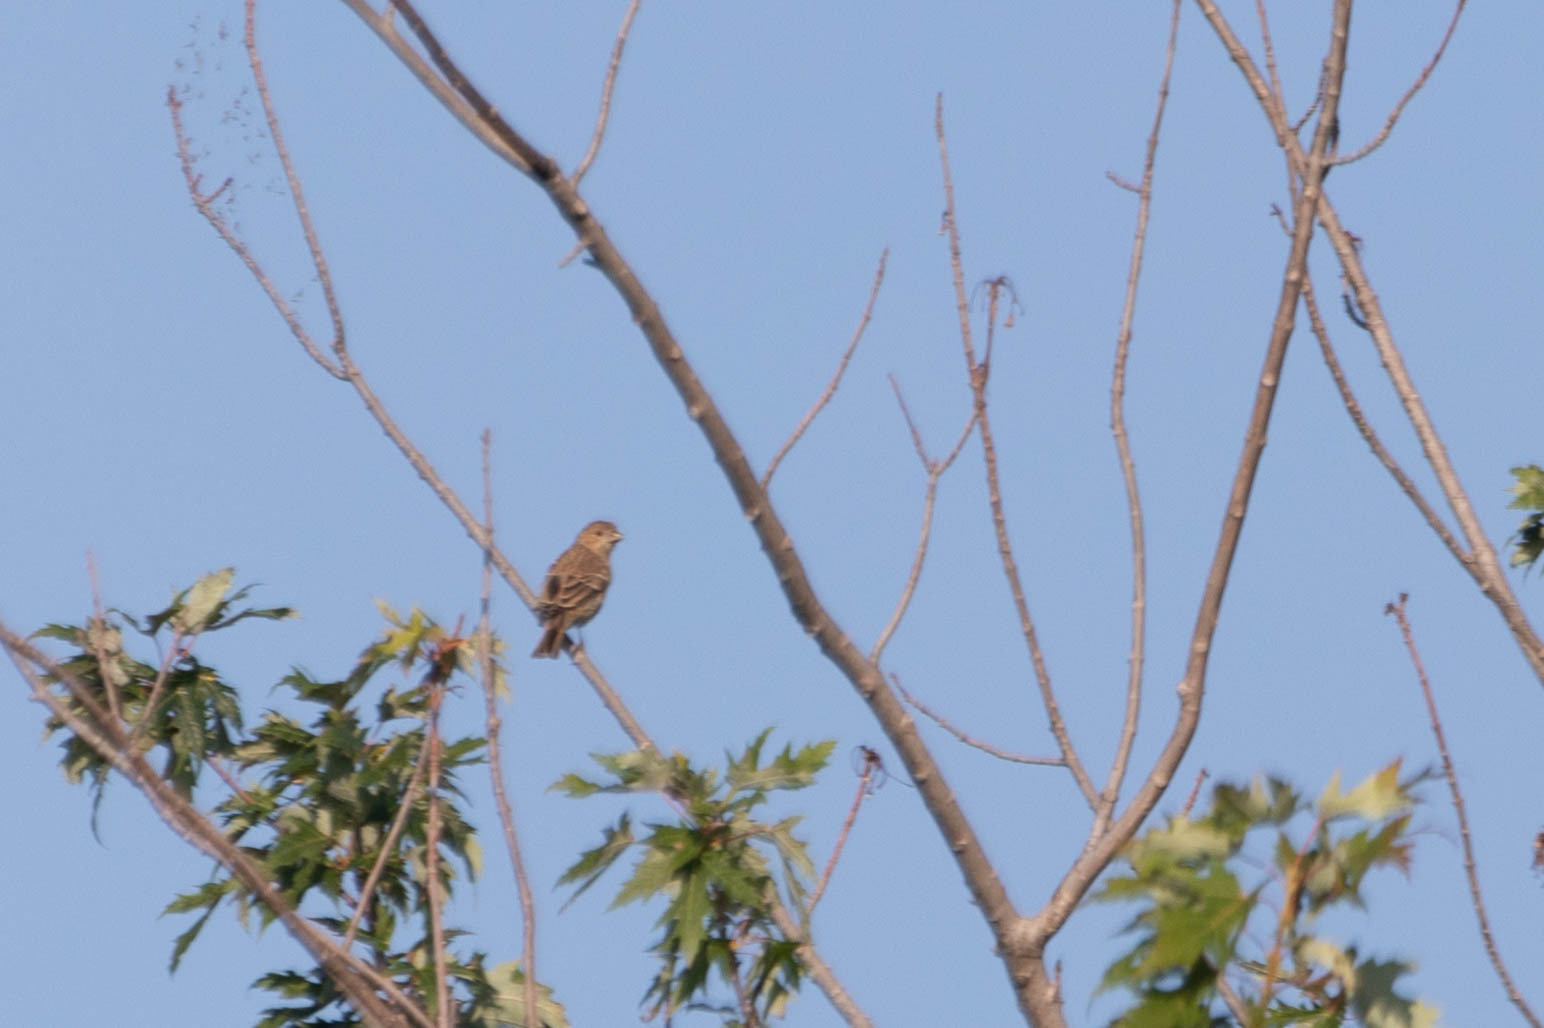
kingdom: Animalia
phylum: Chordata
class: Aves
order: Passeriformes
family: Fringillidae
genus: Haemorhous
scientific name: Haemorhous mexicanus
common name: House finch
